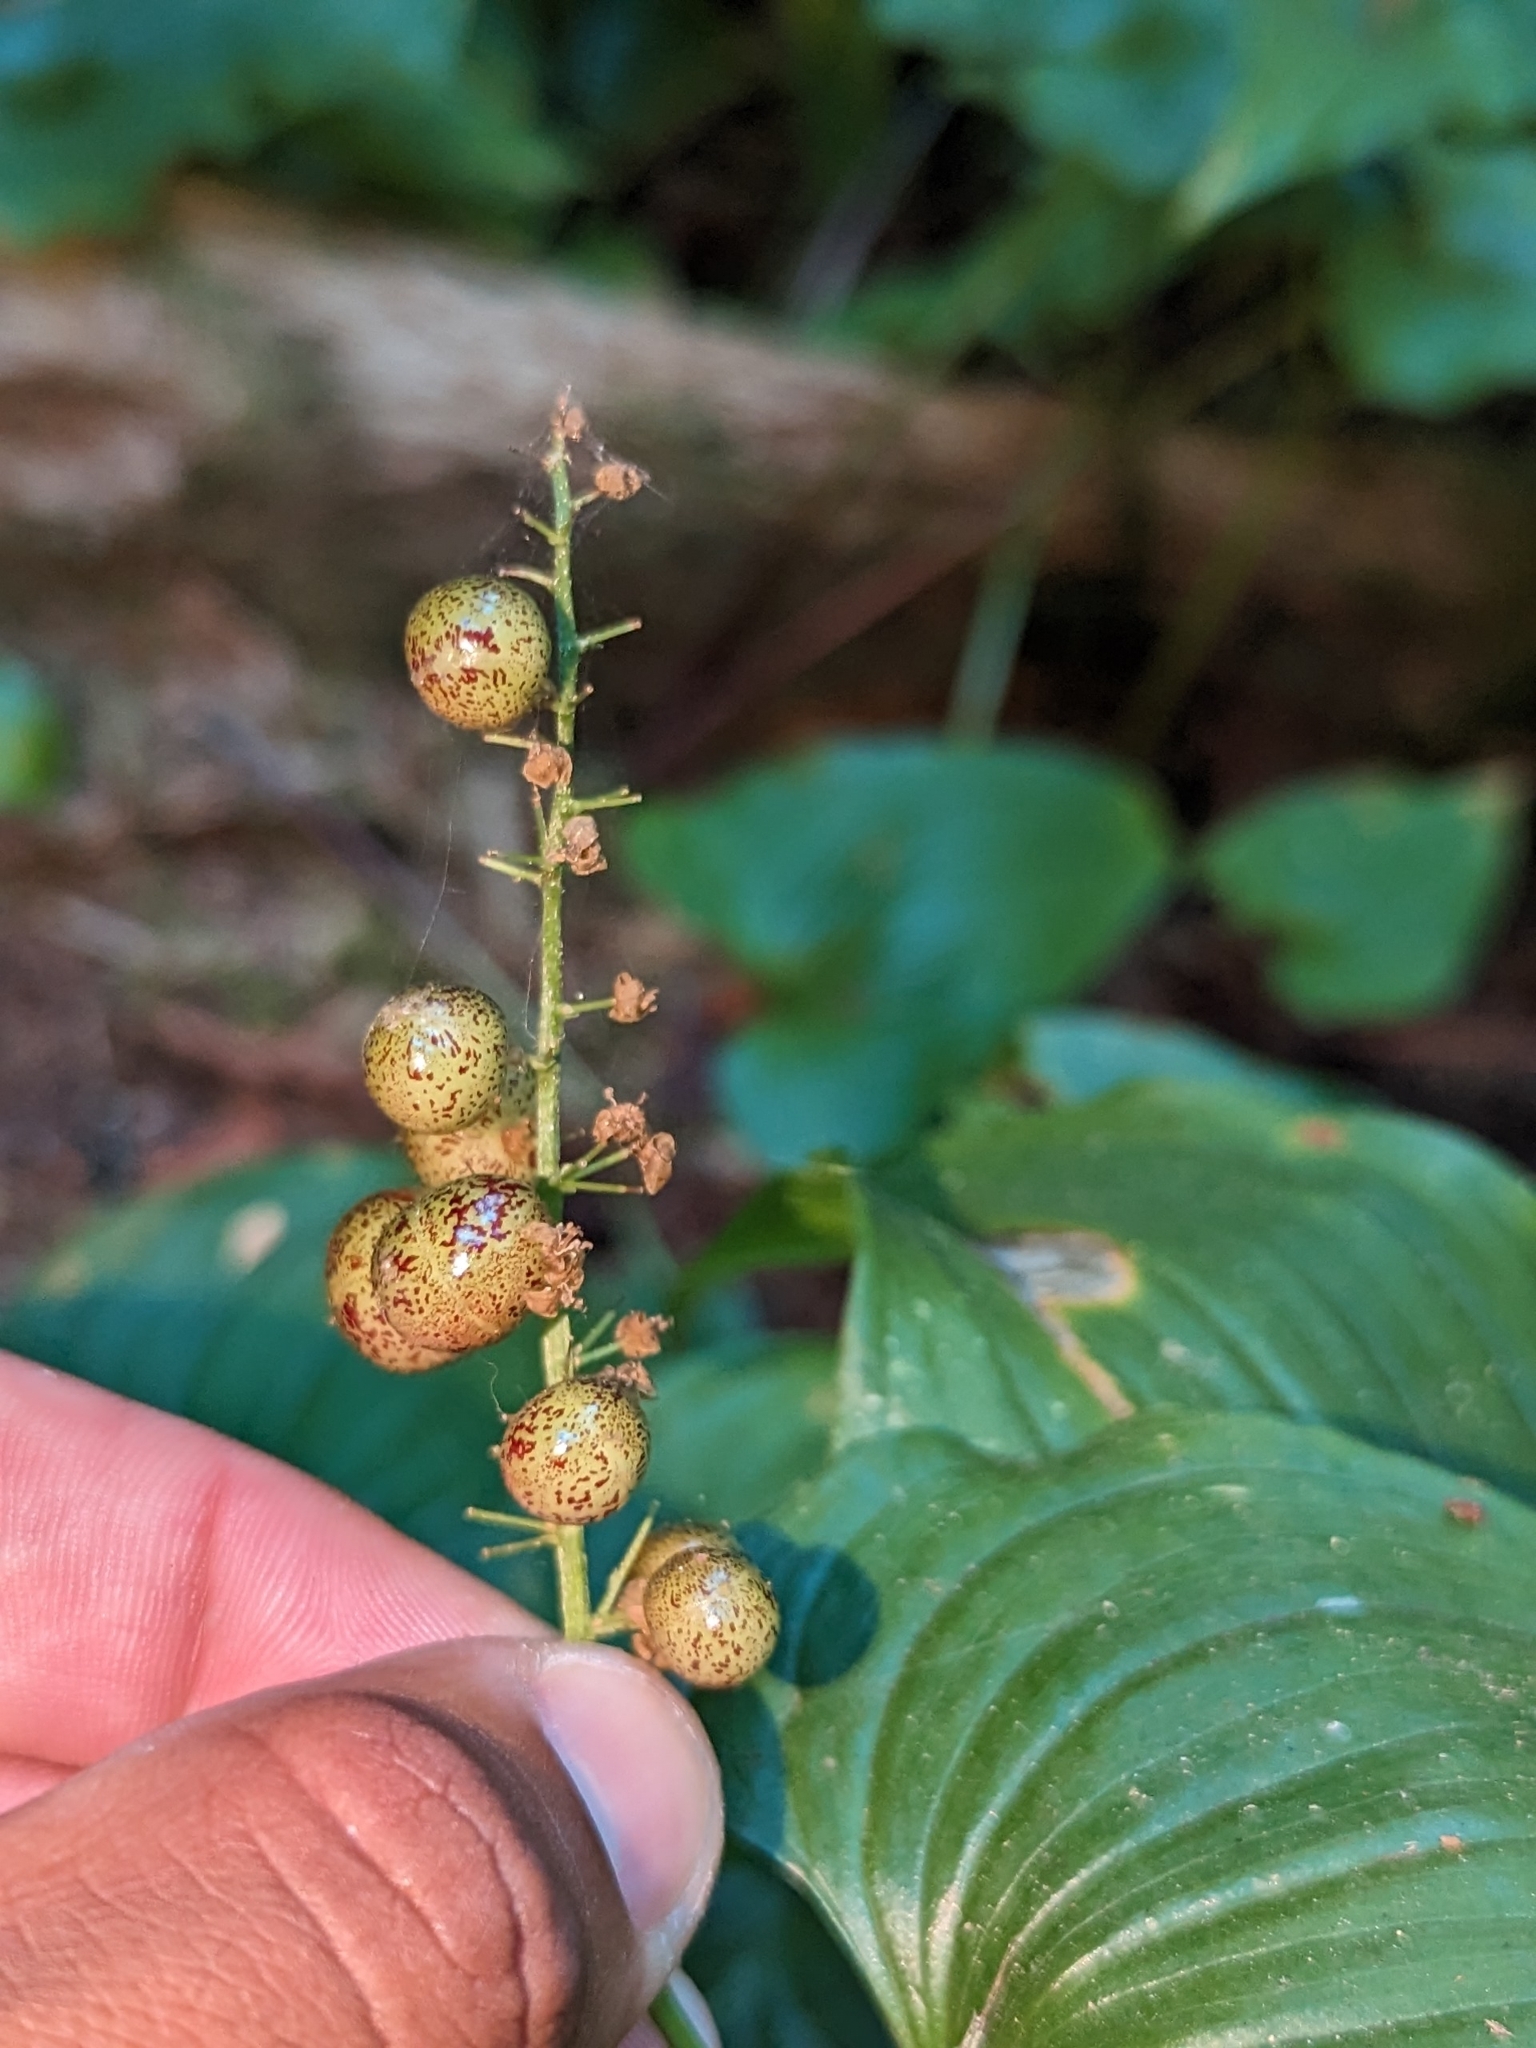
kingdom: Plantae
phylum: Tracheophyta
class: Liliopsida
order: Asparagales
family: Asparagaceae
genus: Maianthemum
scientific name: Maianthemum dilatatum
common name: False lily-of-the-valley
